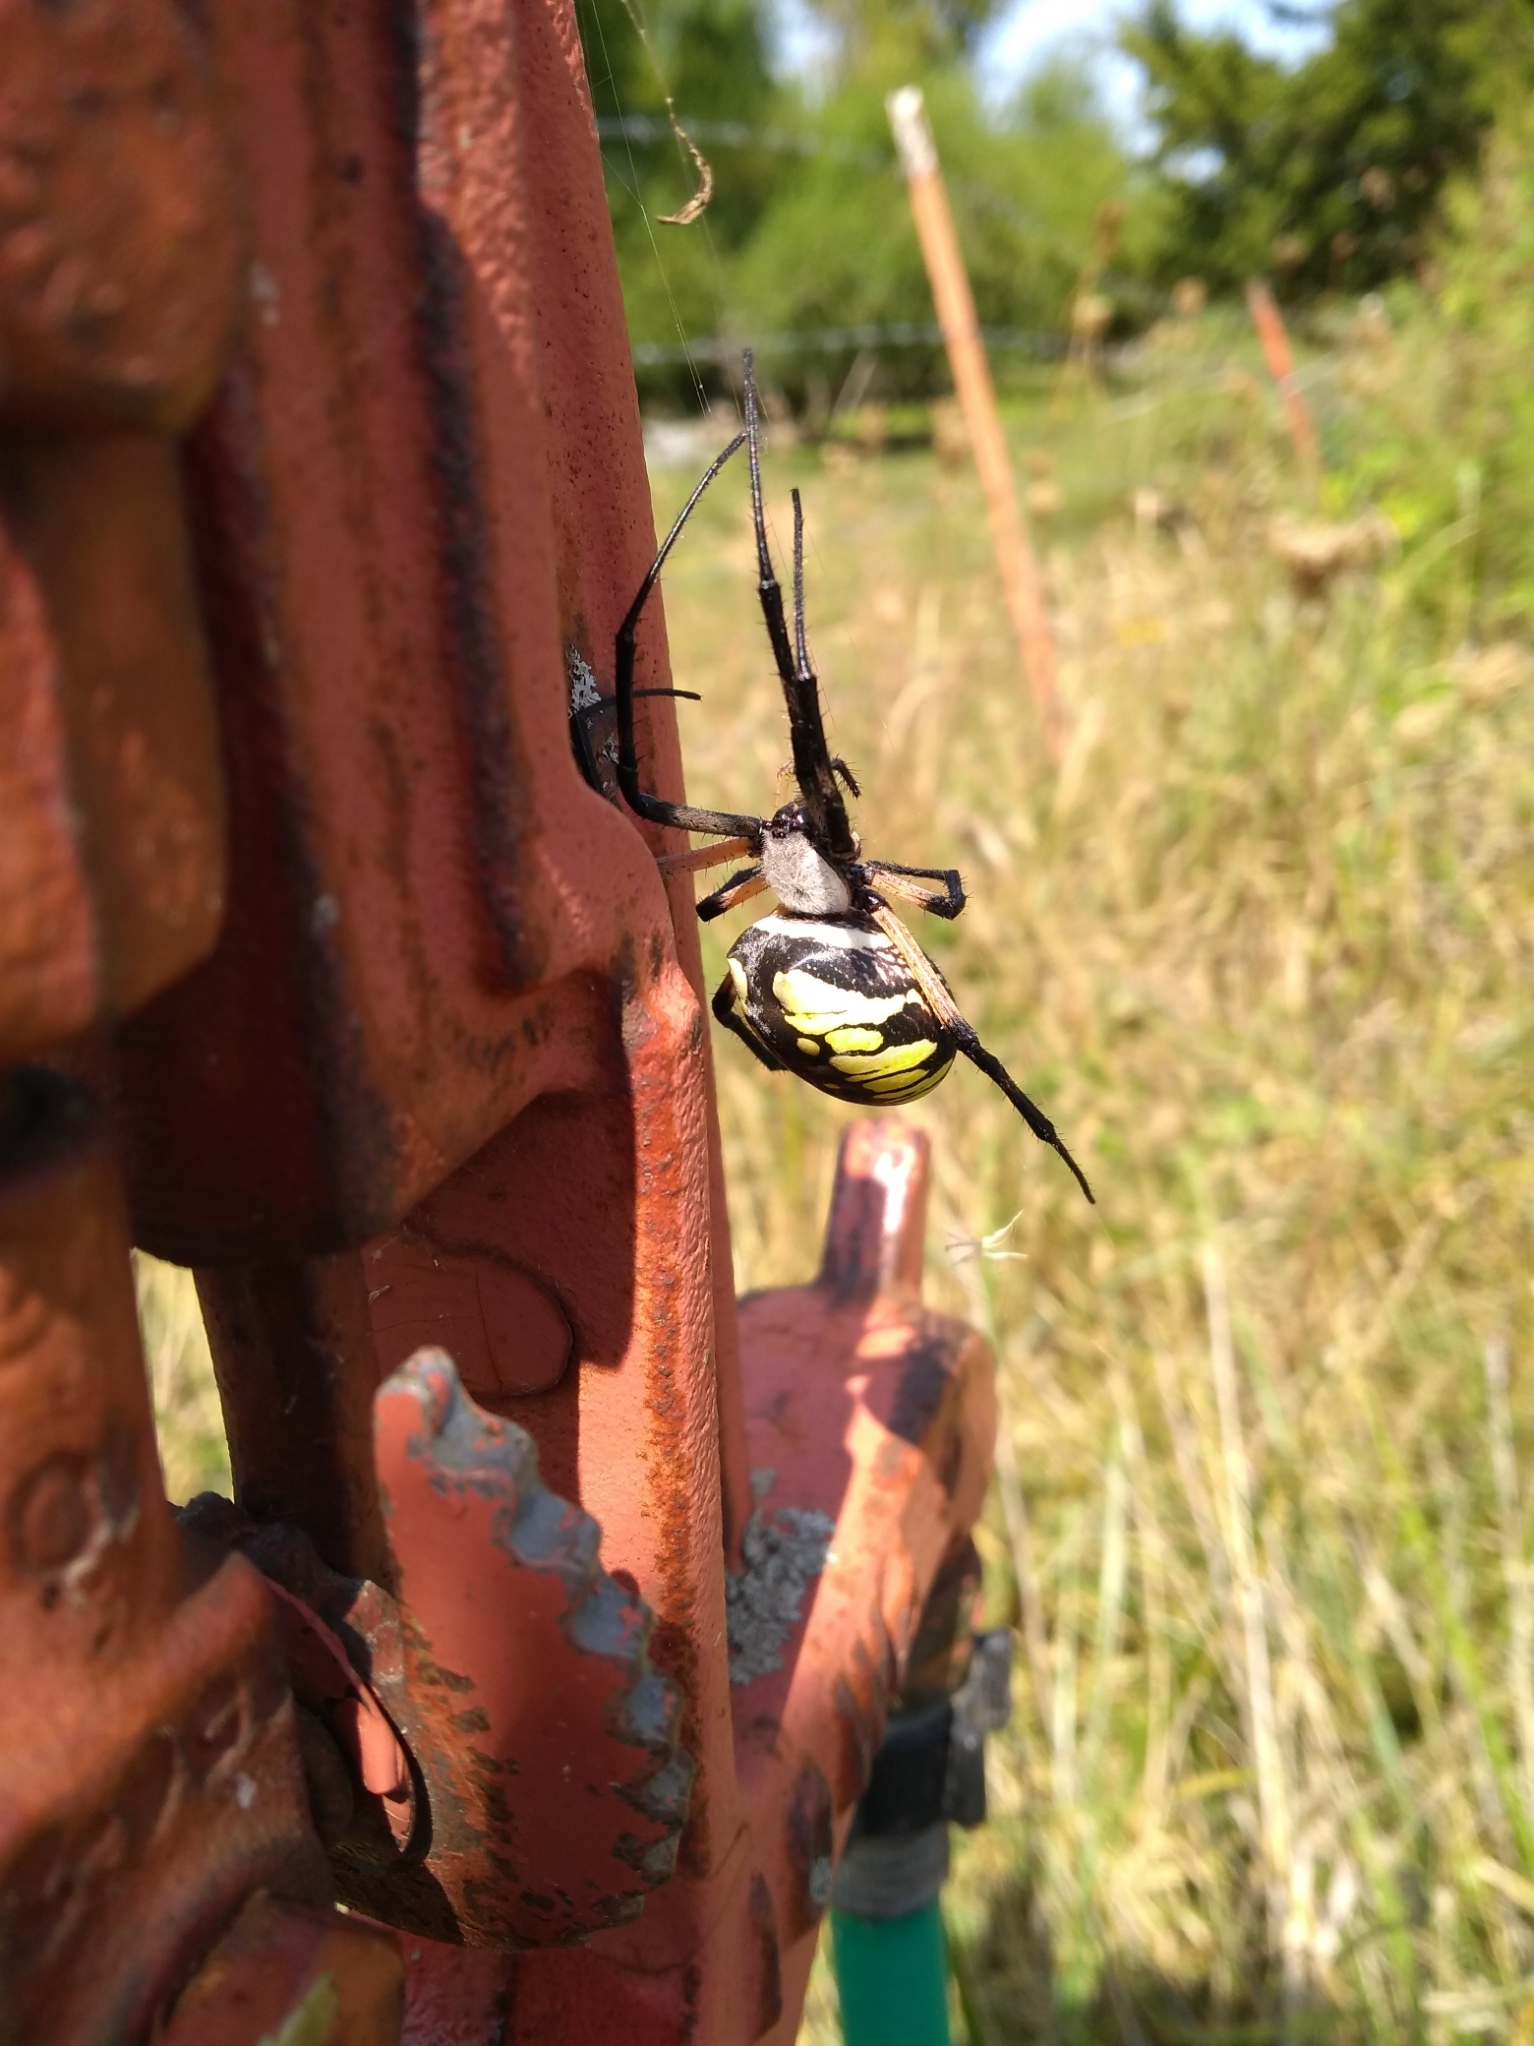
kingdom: Animalia
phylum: Arthropoda
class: Arachnida
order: Araneae
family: Araneidae
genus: Argiope
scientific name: Argiope aurantia
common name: Orb weavers
